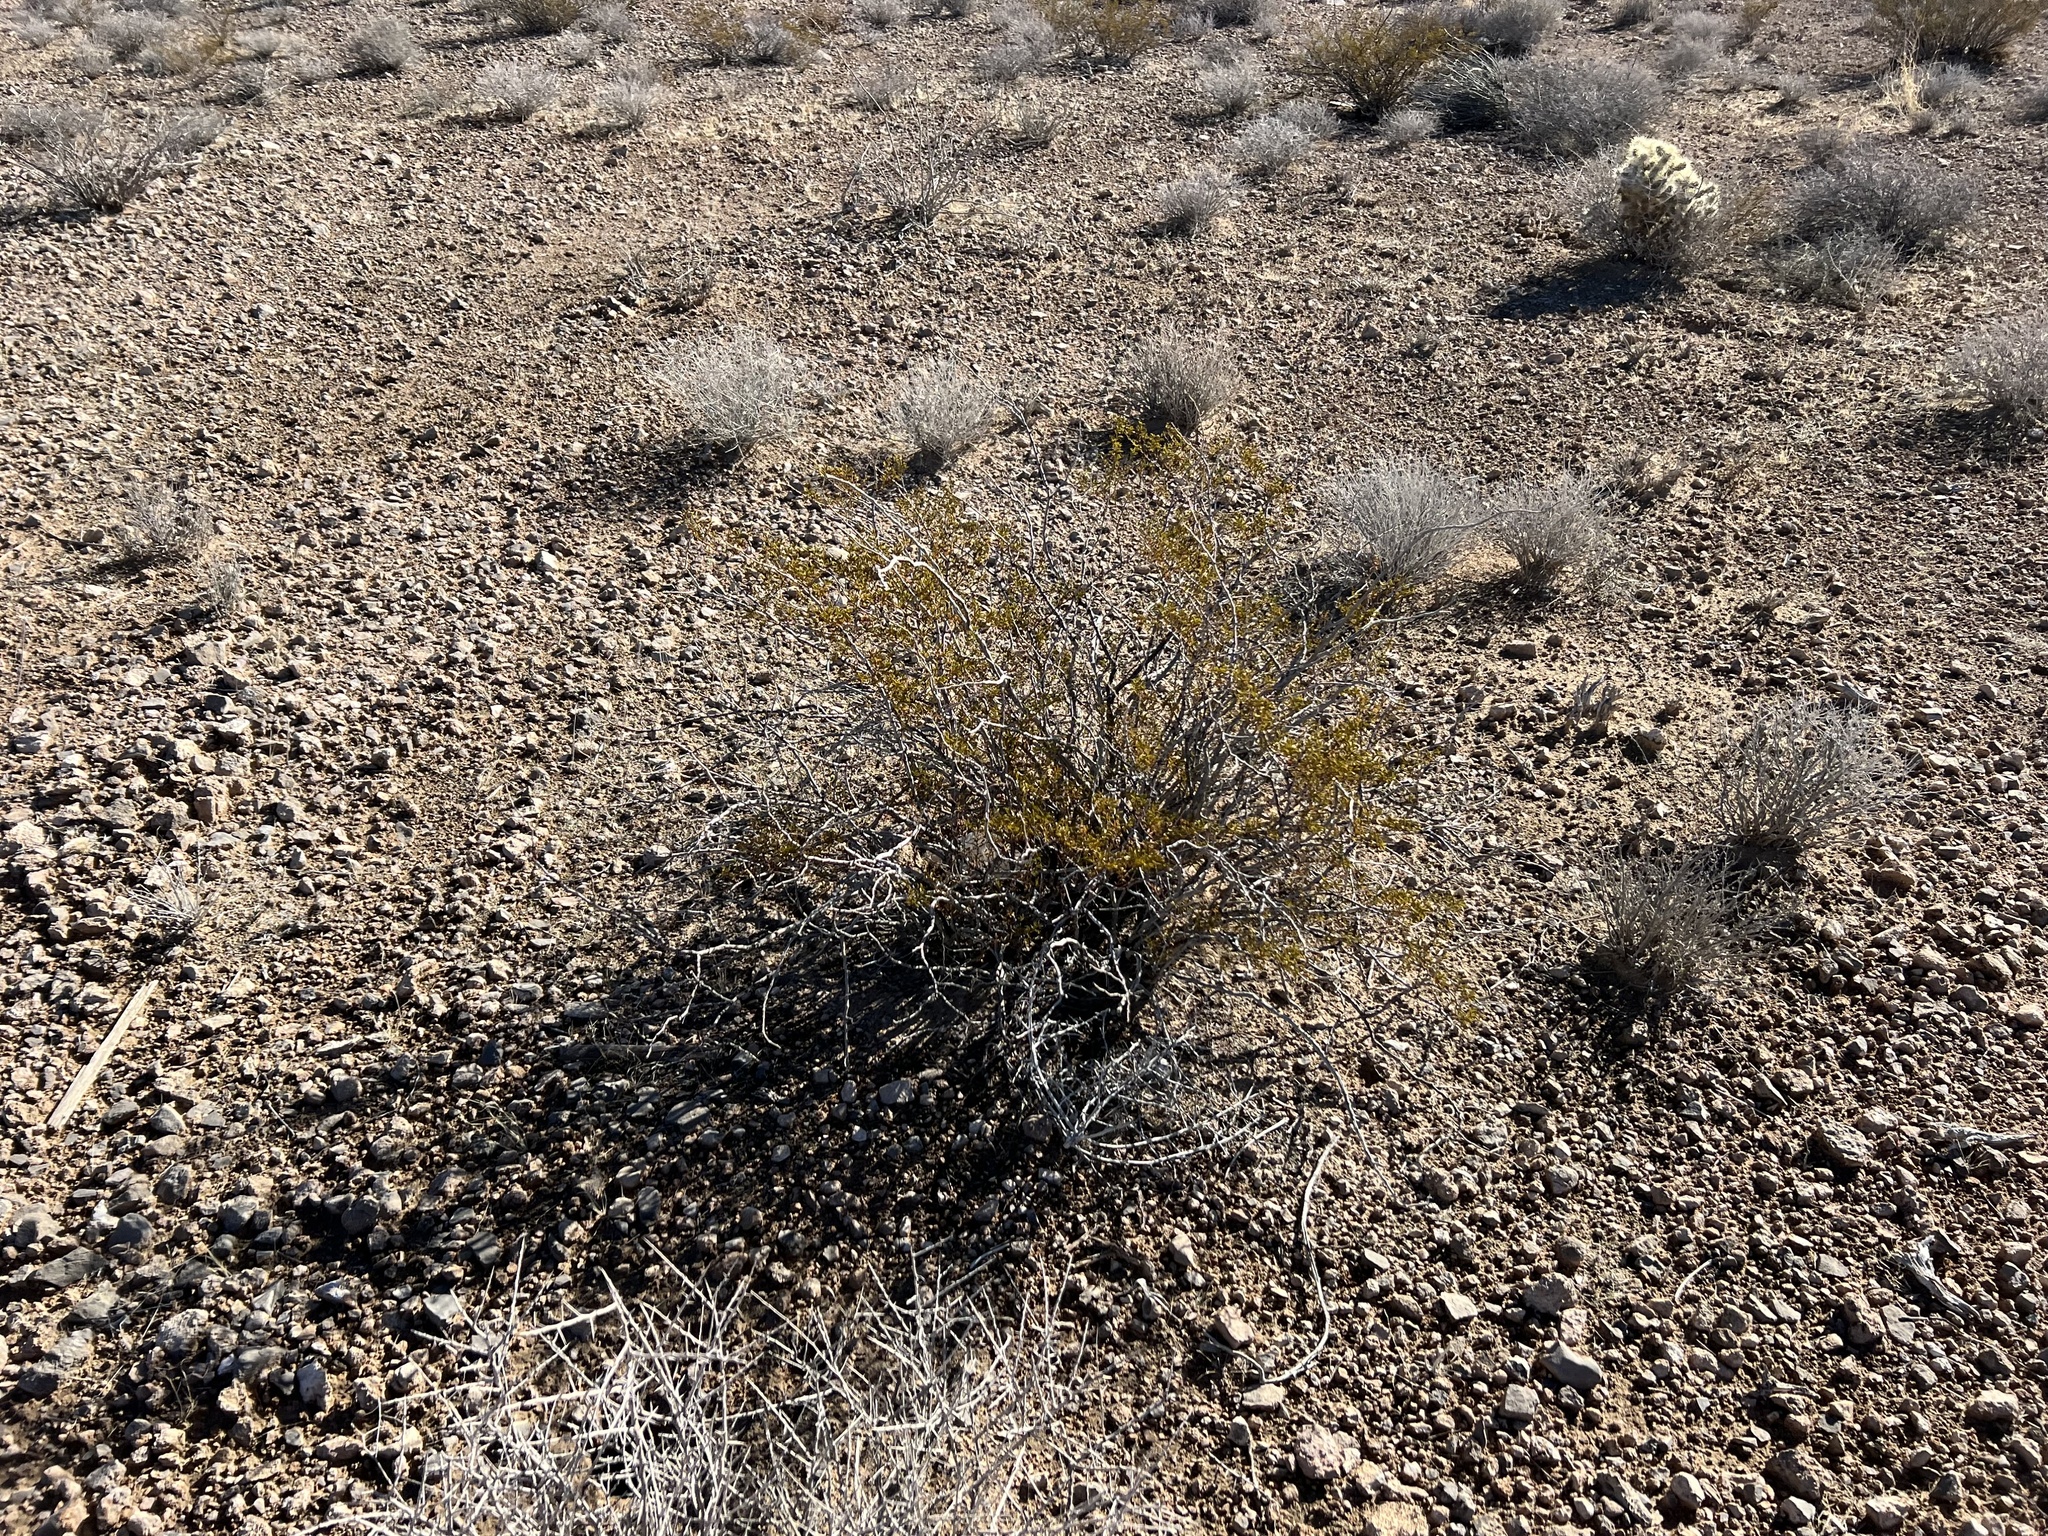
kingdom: Plantae
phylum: Tracheophyta
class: Magnoliopsida
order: Zygophyllales
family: Zygophyllaceae
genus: Larrea
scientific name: Larrea tridentata
